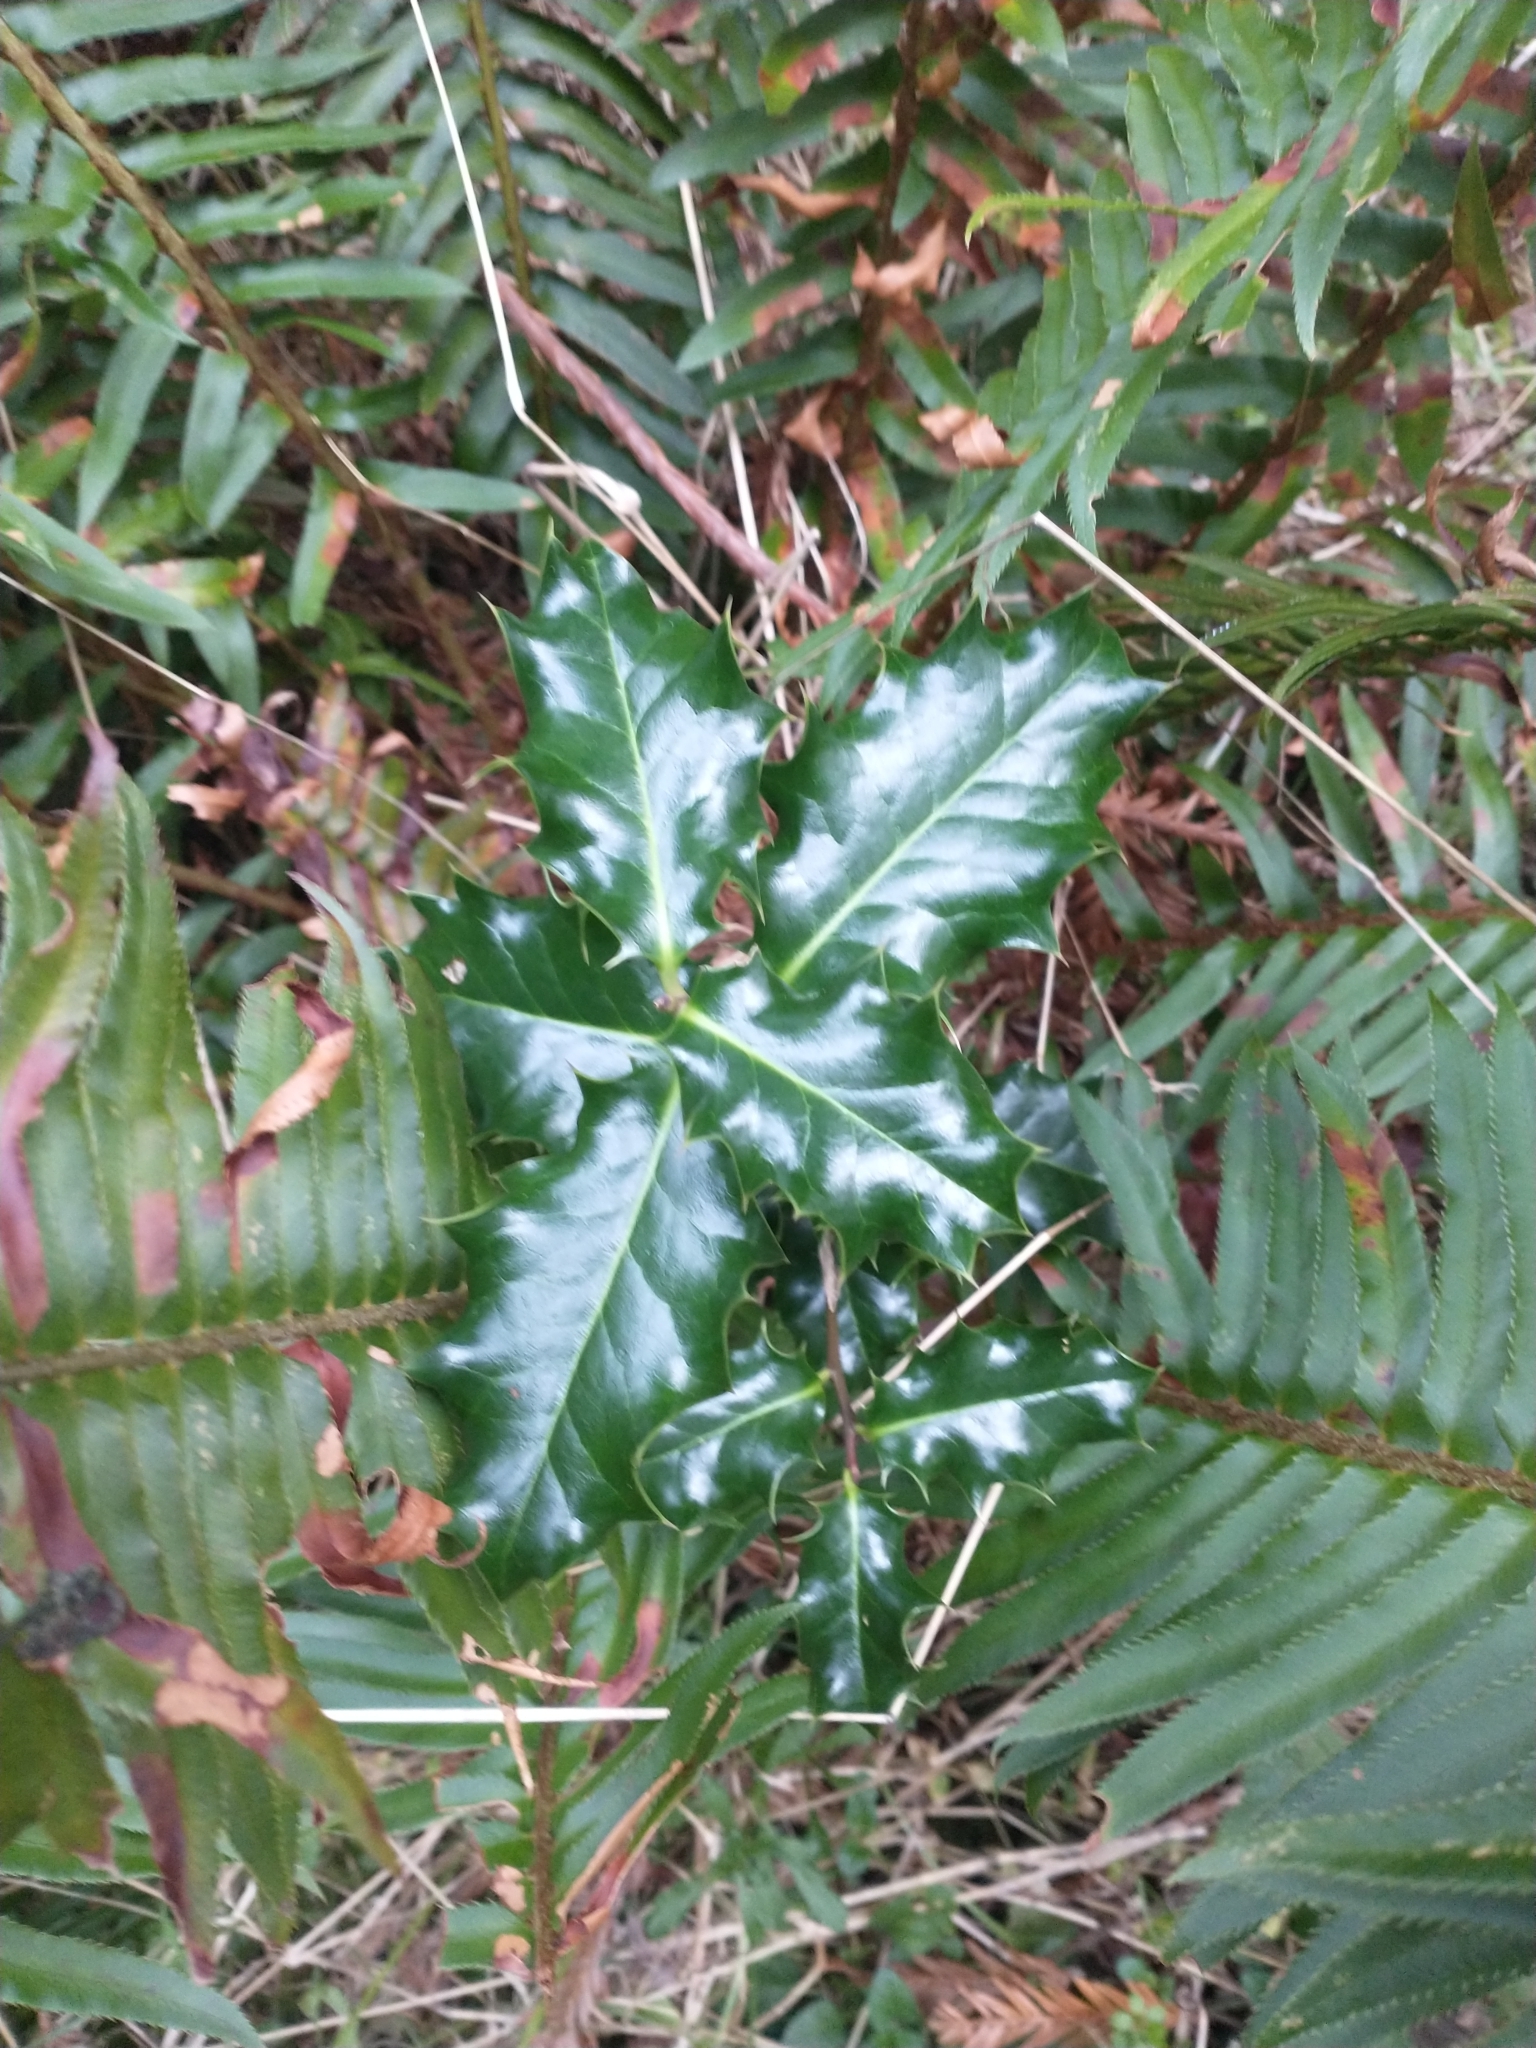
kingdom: Plantae
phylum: Tracheophyta
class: Magnoliopsida
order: Aquifoliales
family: Aquifoliaceae
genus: Ilex
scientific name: Ilex aquifolium
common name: English holly
